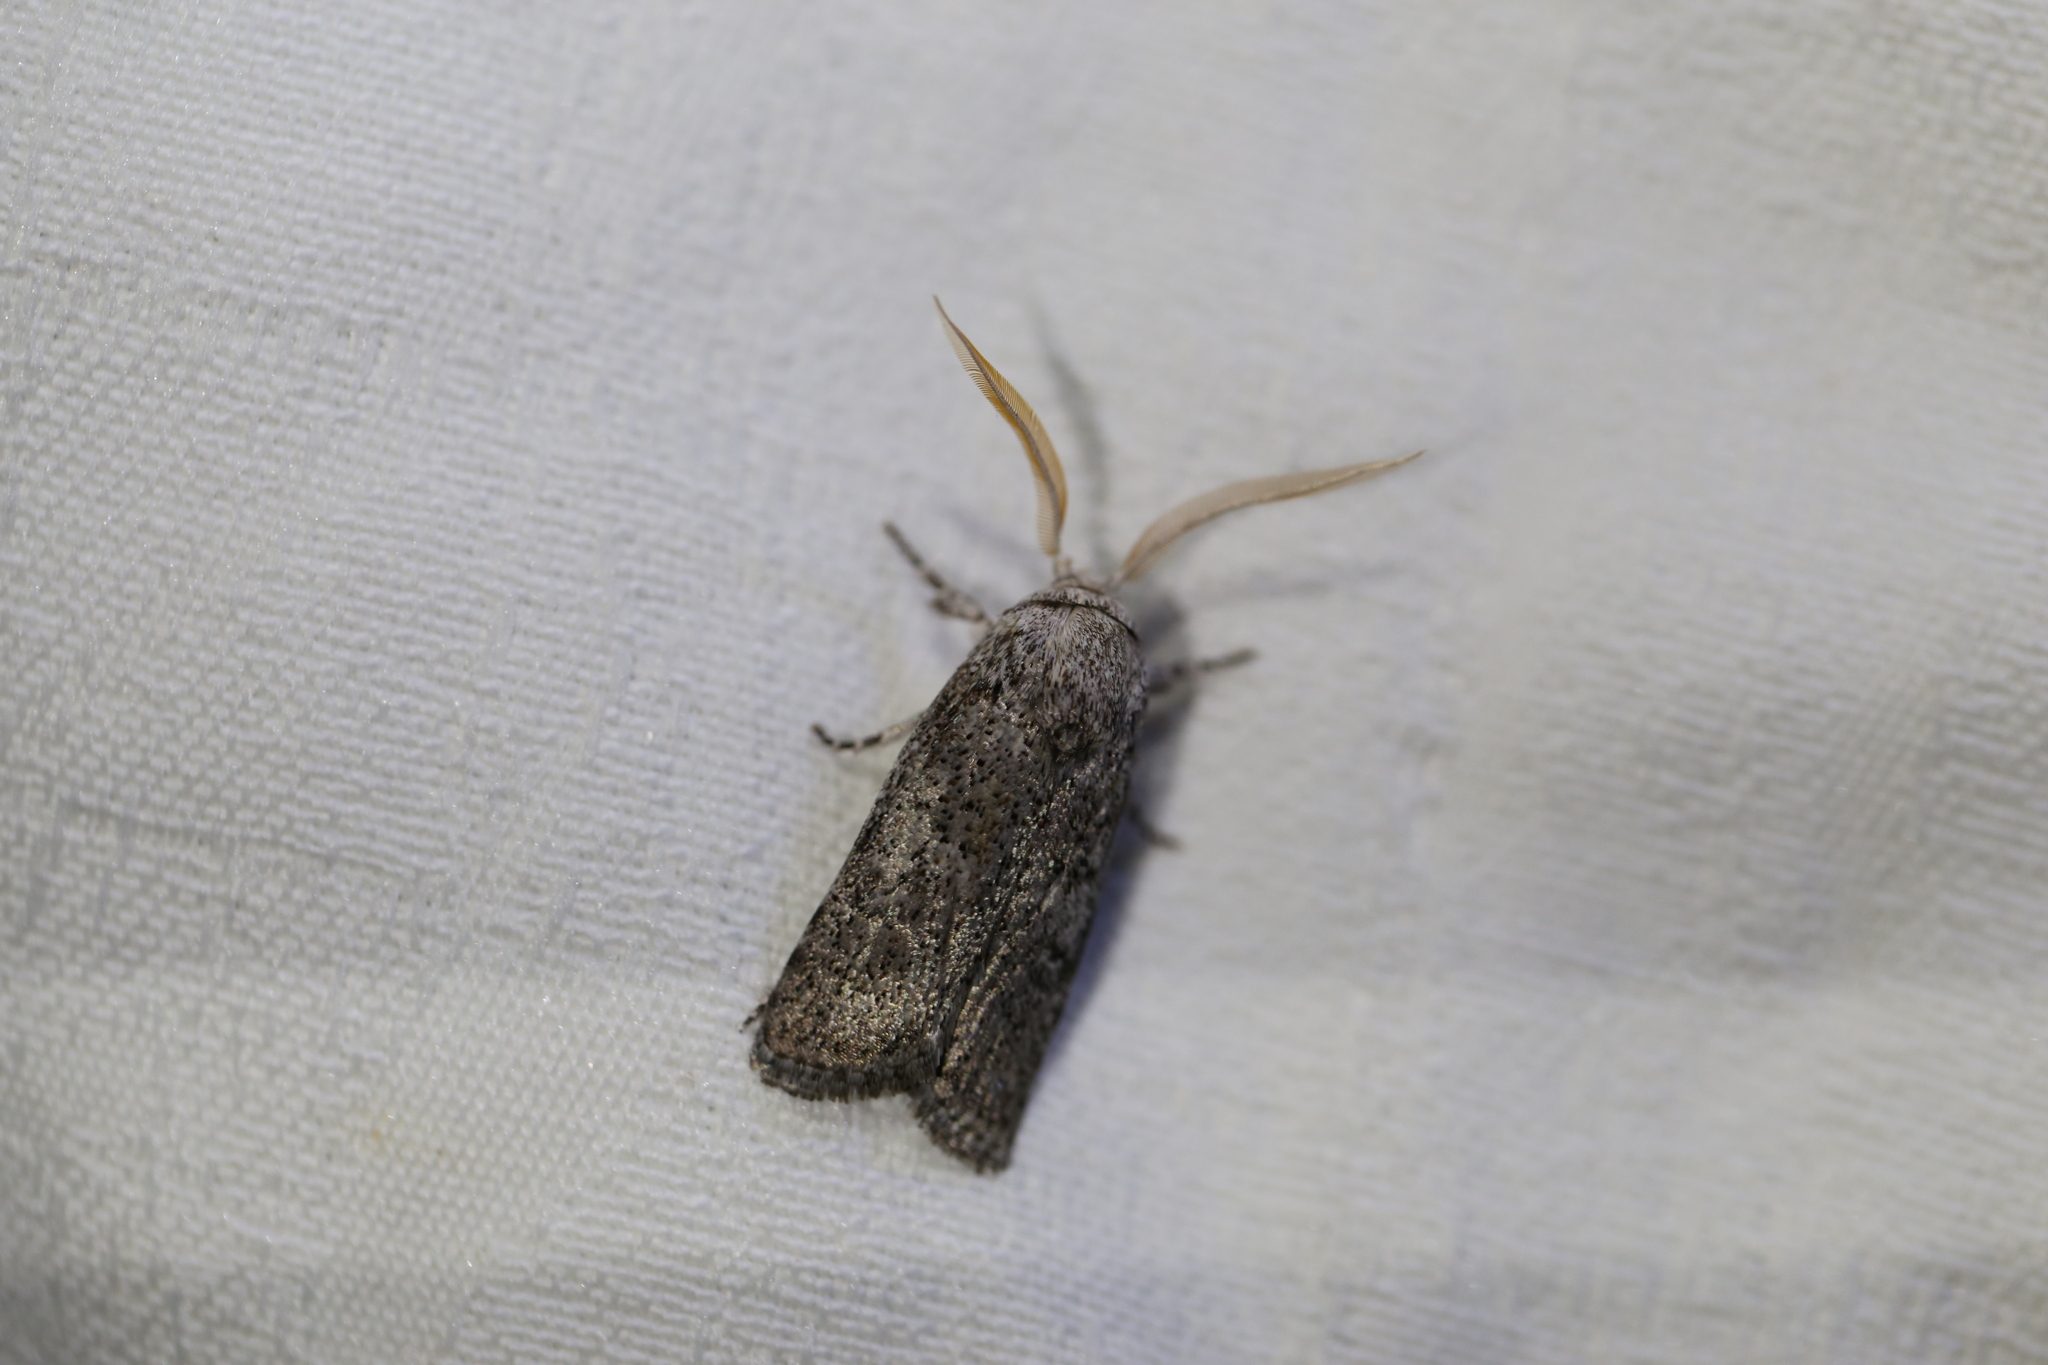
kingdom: Animalia
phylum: Arthropoda
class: Insecta
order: Lepidoptera
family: Xyloryctidae
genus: Cryptophasa
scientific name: Cryptophasa irrorata
